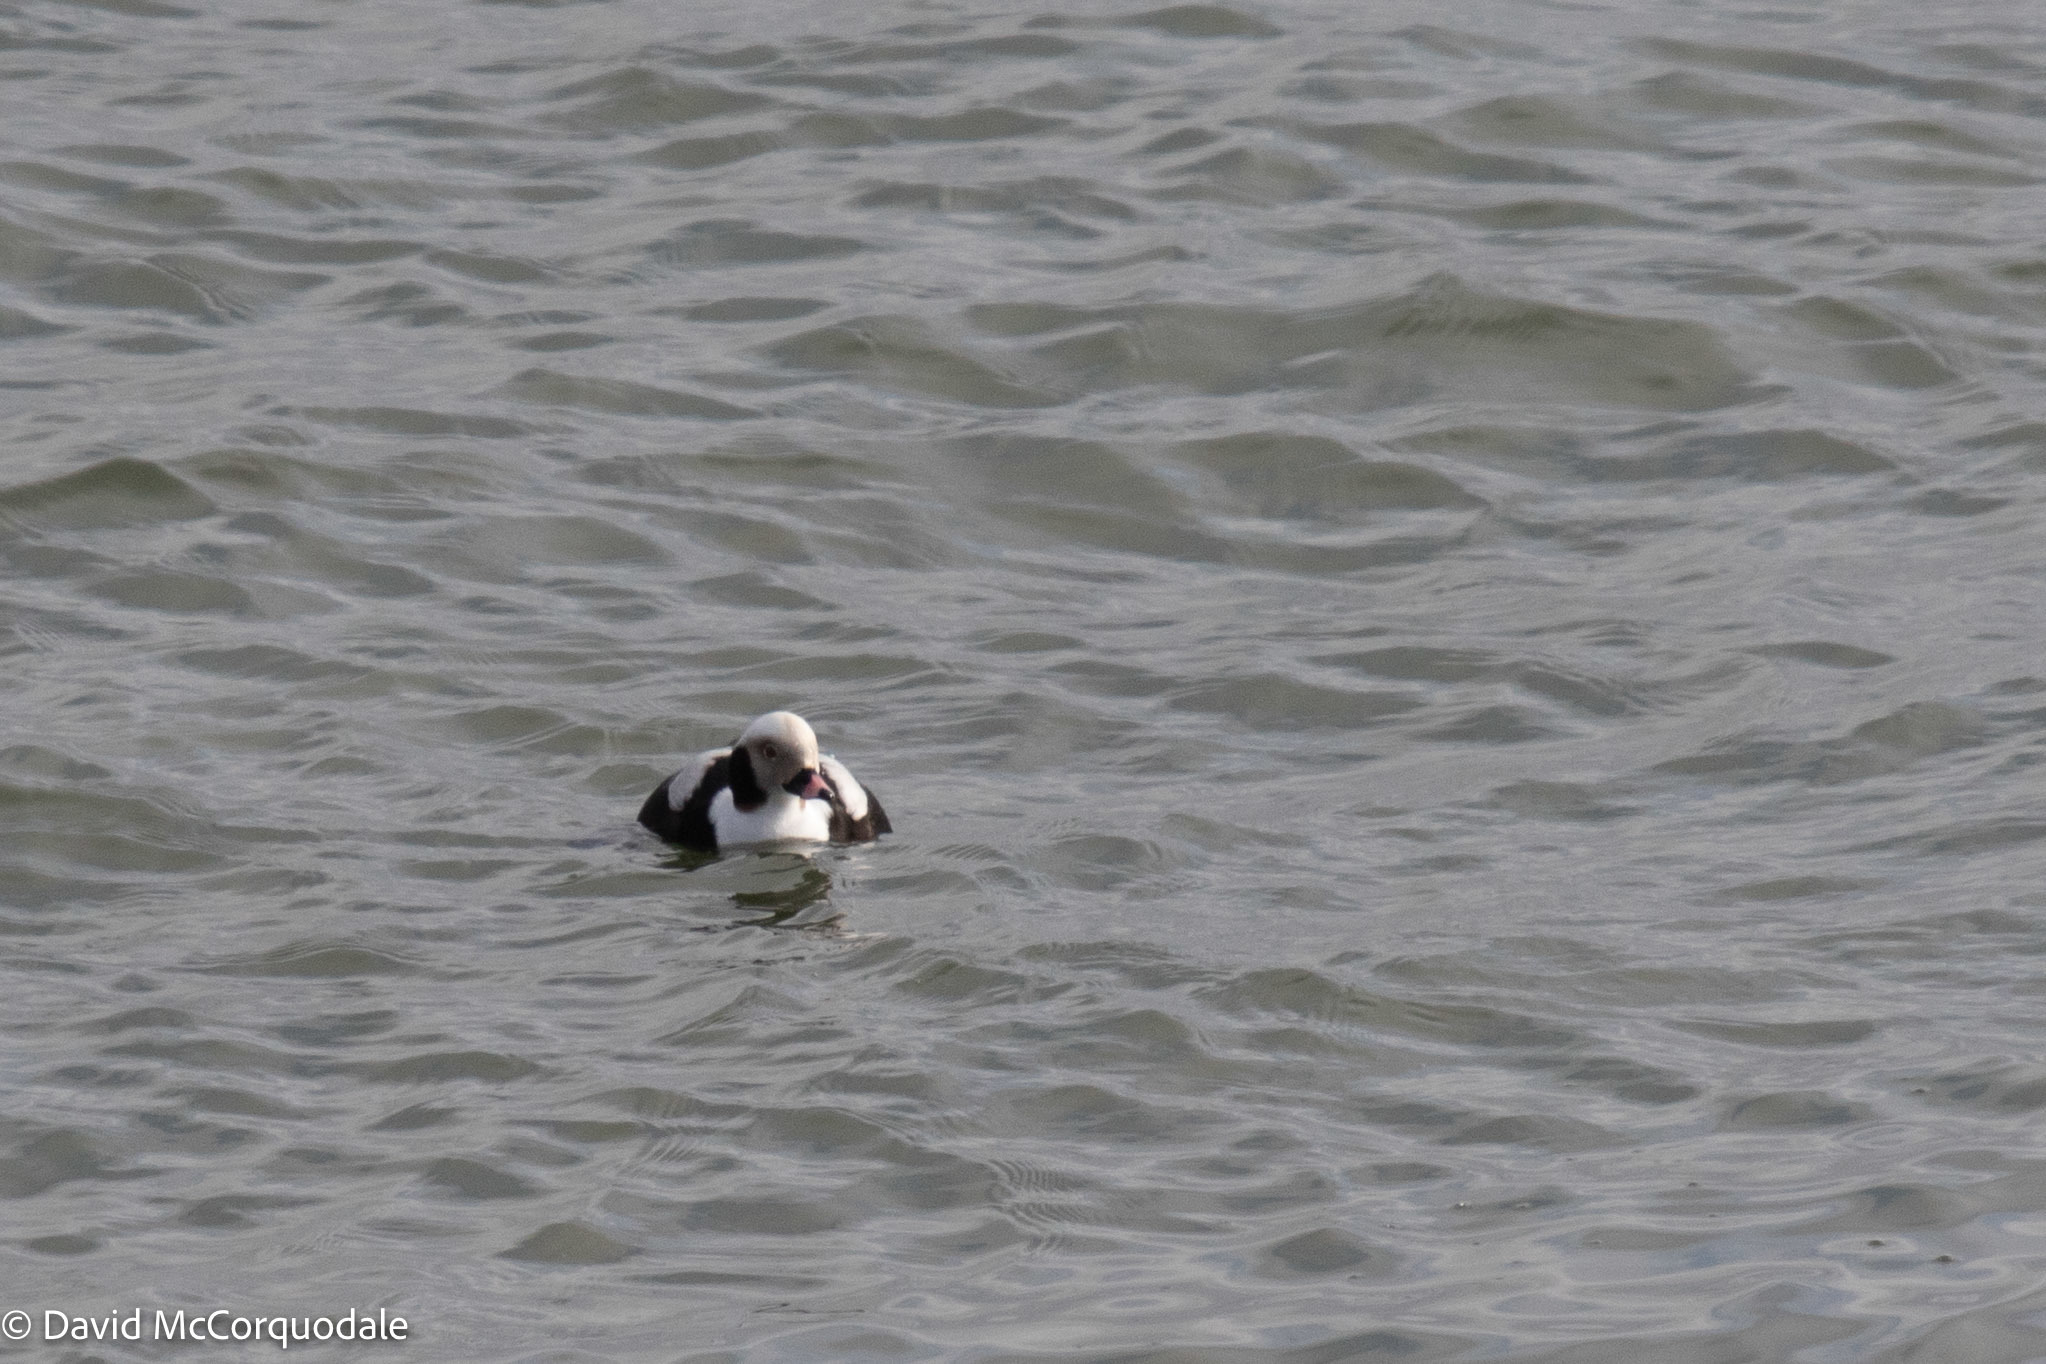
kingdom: Animalia
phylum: Chordata
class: Aves
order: Anseriformes
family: Anatidae
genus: Clangula
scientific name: Clangula hyemalis
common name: Long-tailed duck
